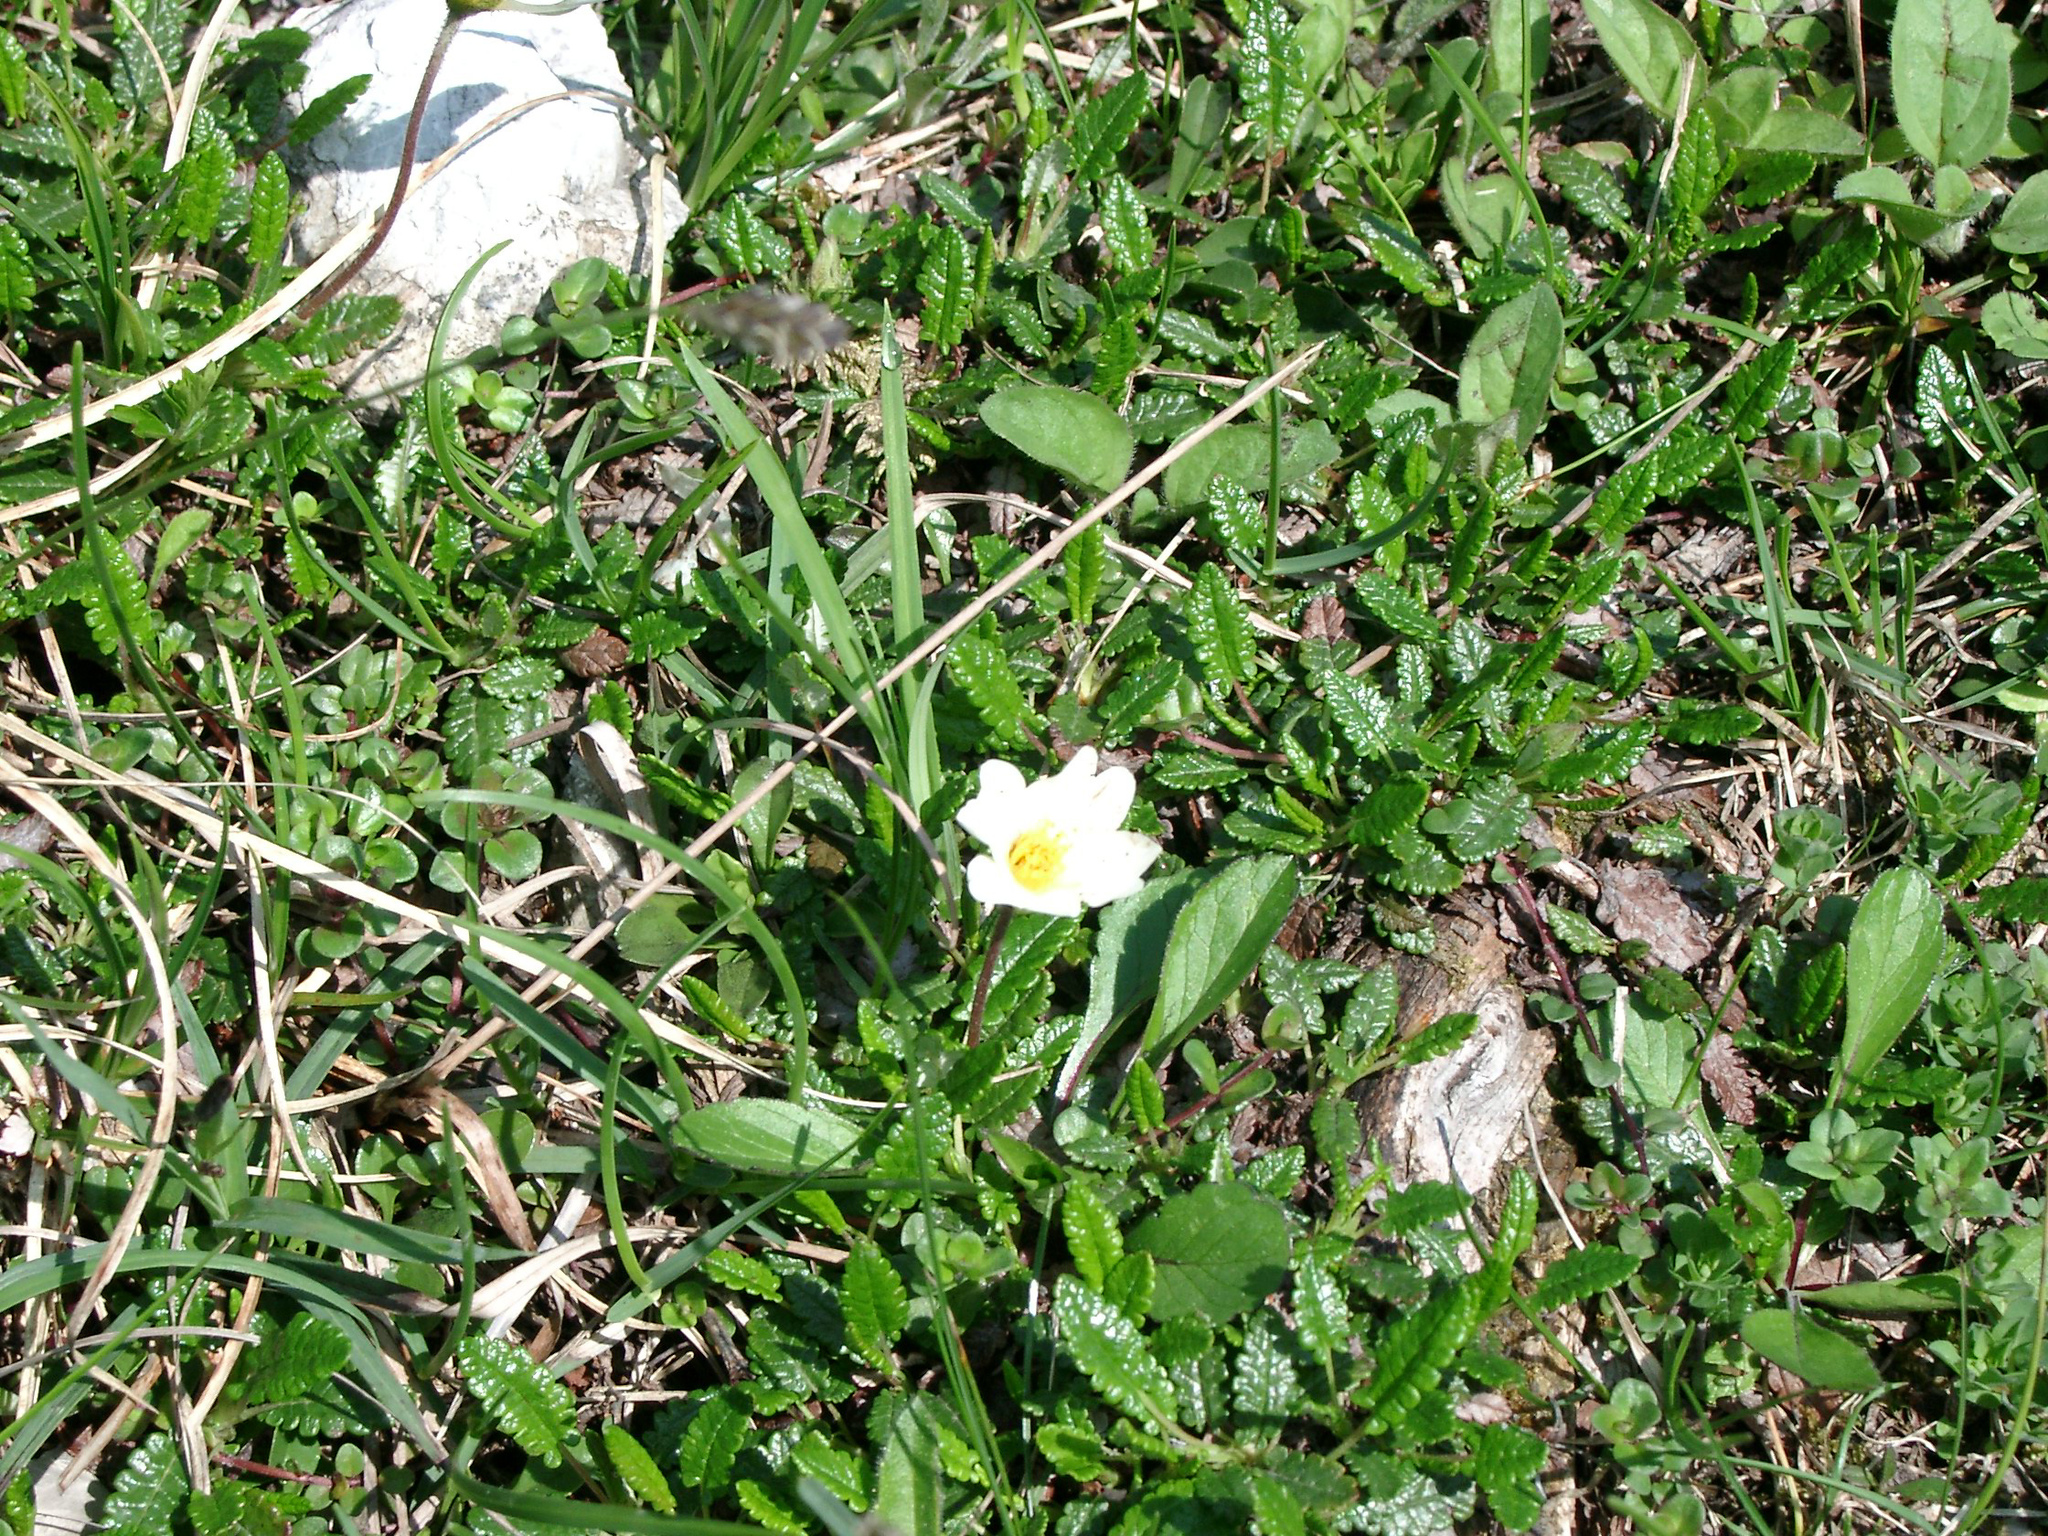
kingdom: Plantae
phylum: Tracheophyta
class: Magnoliopsida
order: Rosales
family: Rosaceae
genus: Dryas
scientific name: Dryas octopetala
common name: Eight-petal mountain-avens
